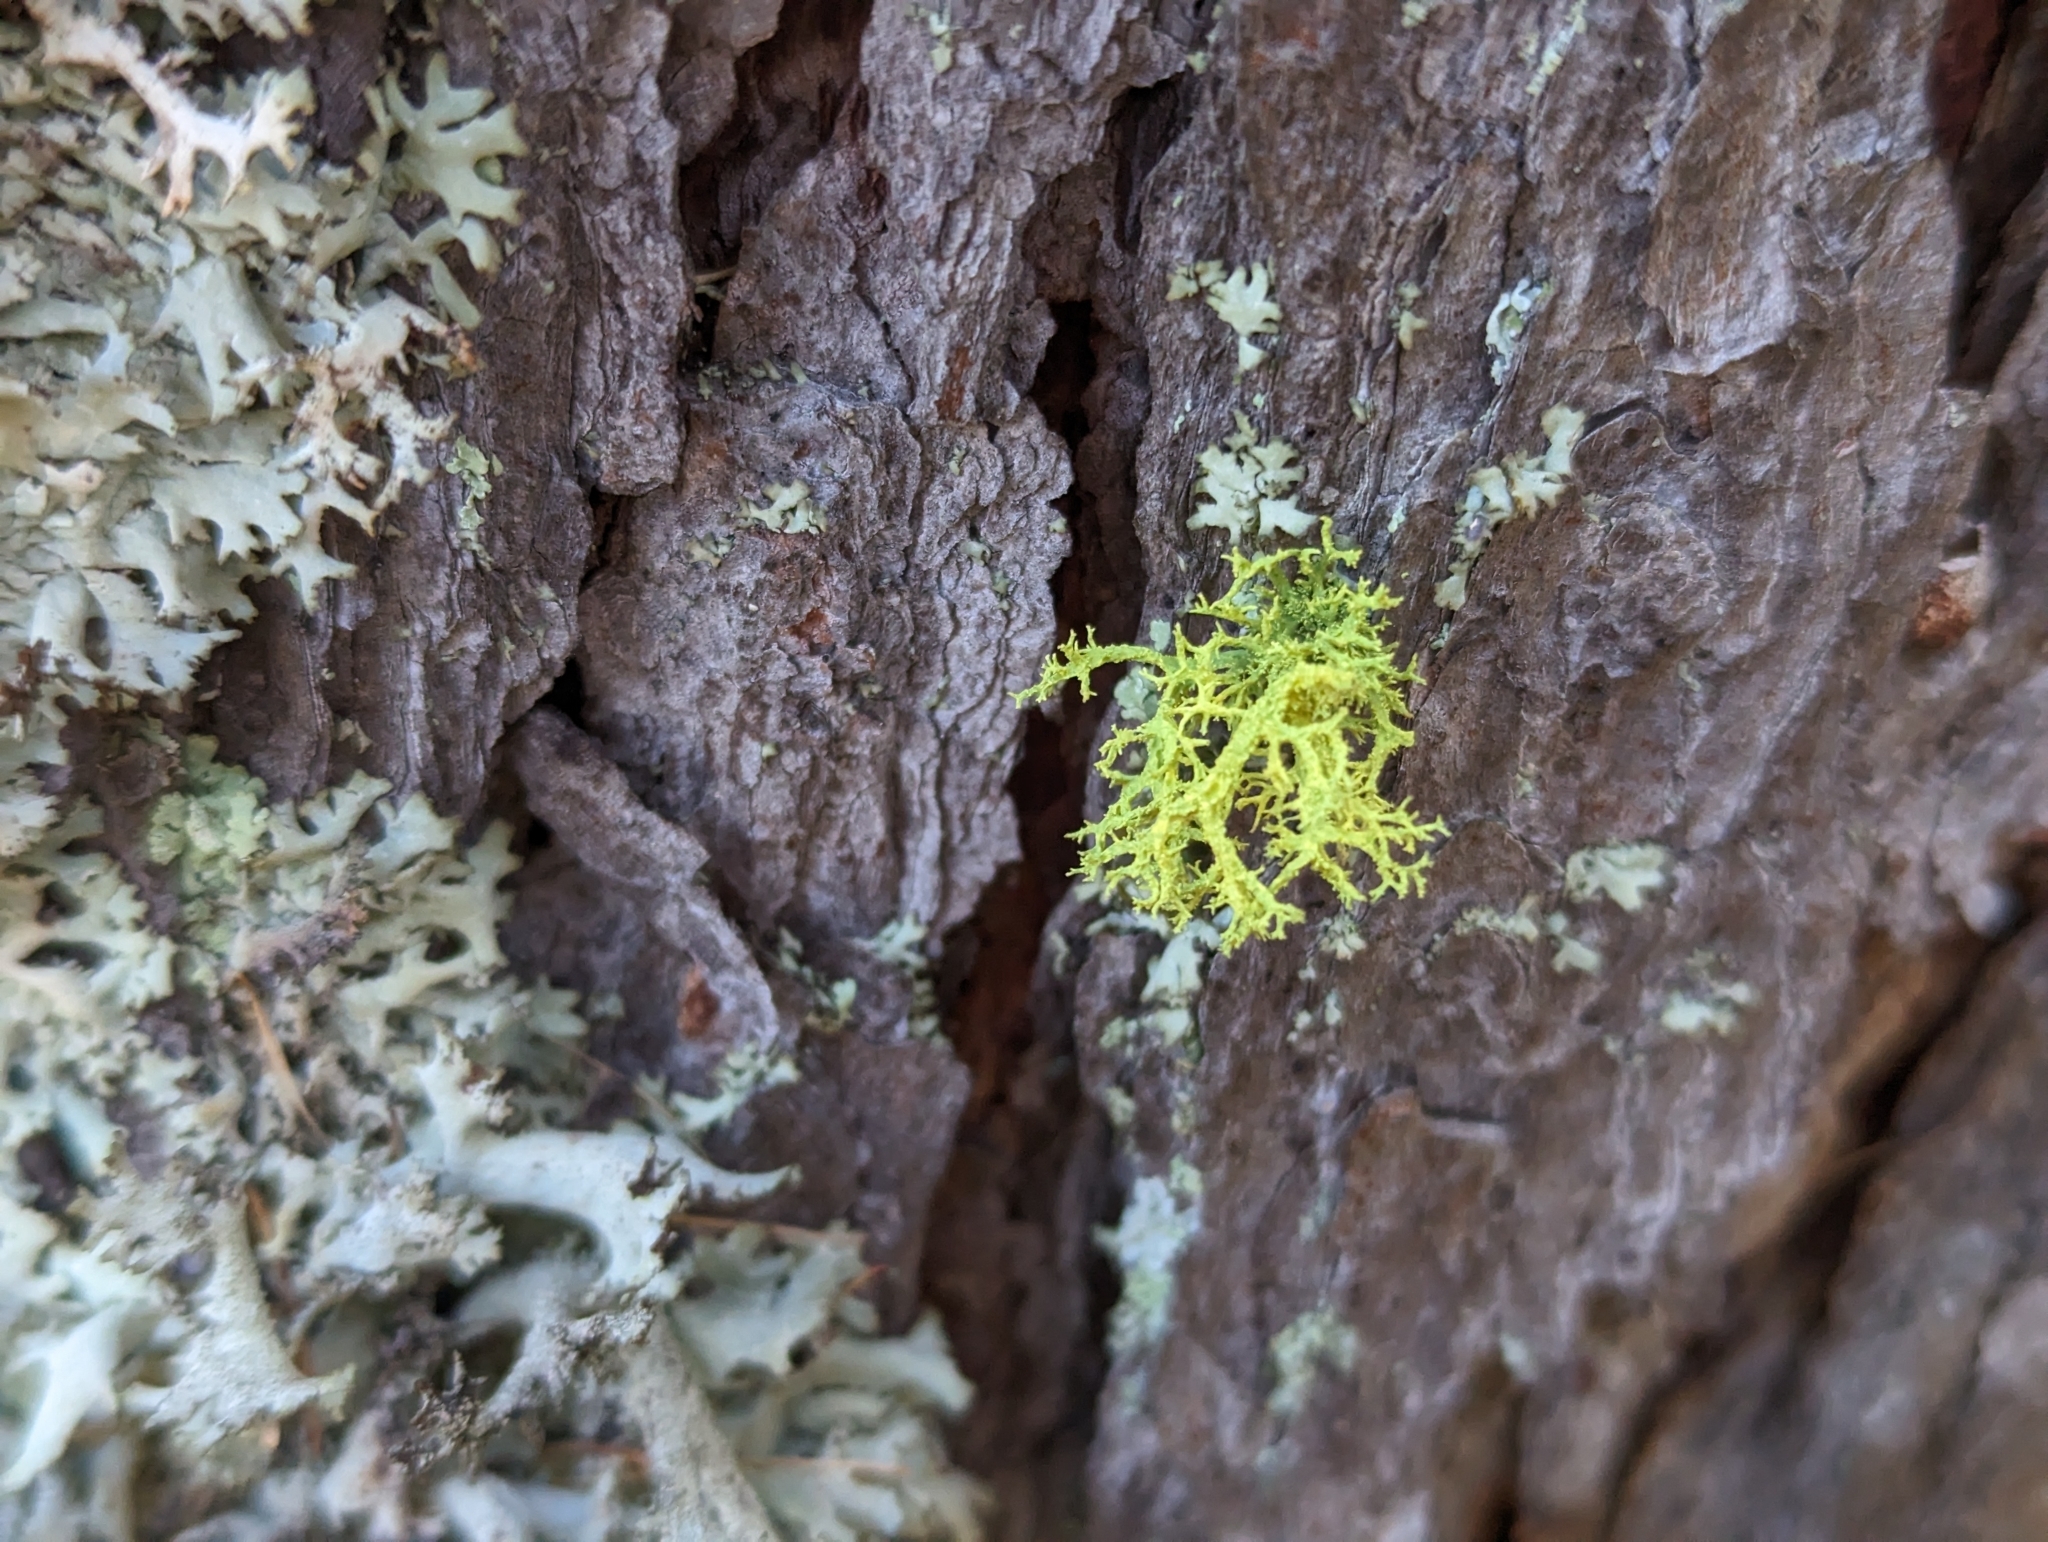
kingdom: Fungi
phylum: Ascomycota
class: Lecanoromycetes
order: Lecanorales
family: Parmeliaceae
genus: Letharia
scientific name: Letharia vulpina
